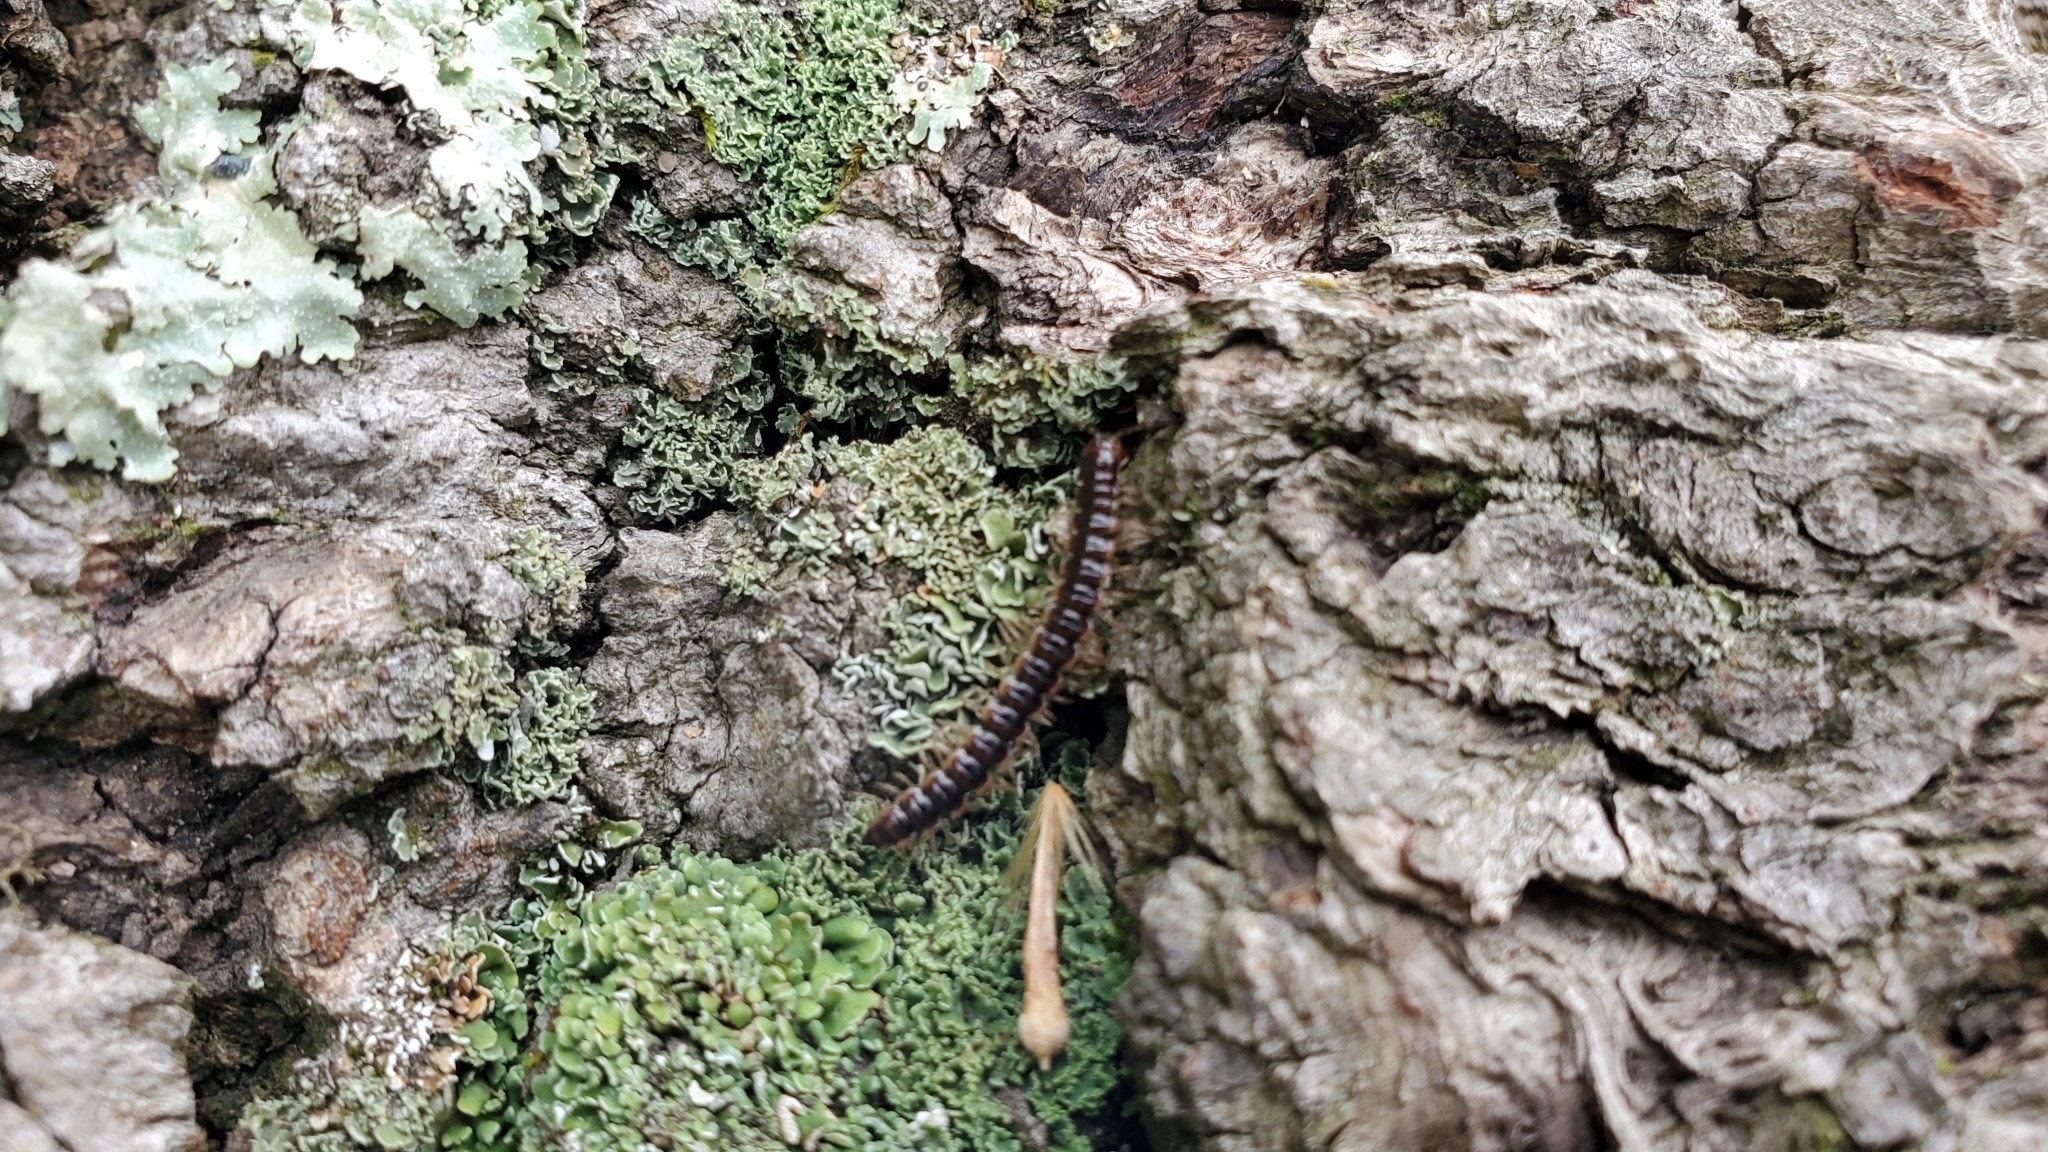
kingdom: Animalia
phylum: Arthropoda
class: Diplopoda
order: Polydesmida
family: Paradoxosomatidae
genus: Oxidus
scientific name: Oxidus gracilis
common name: Greenhouse millipede
